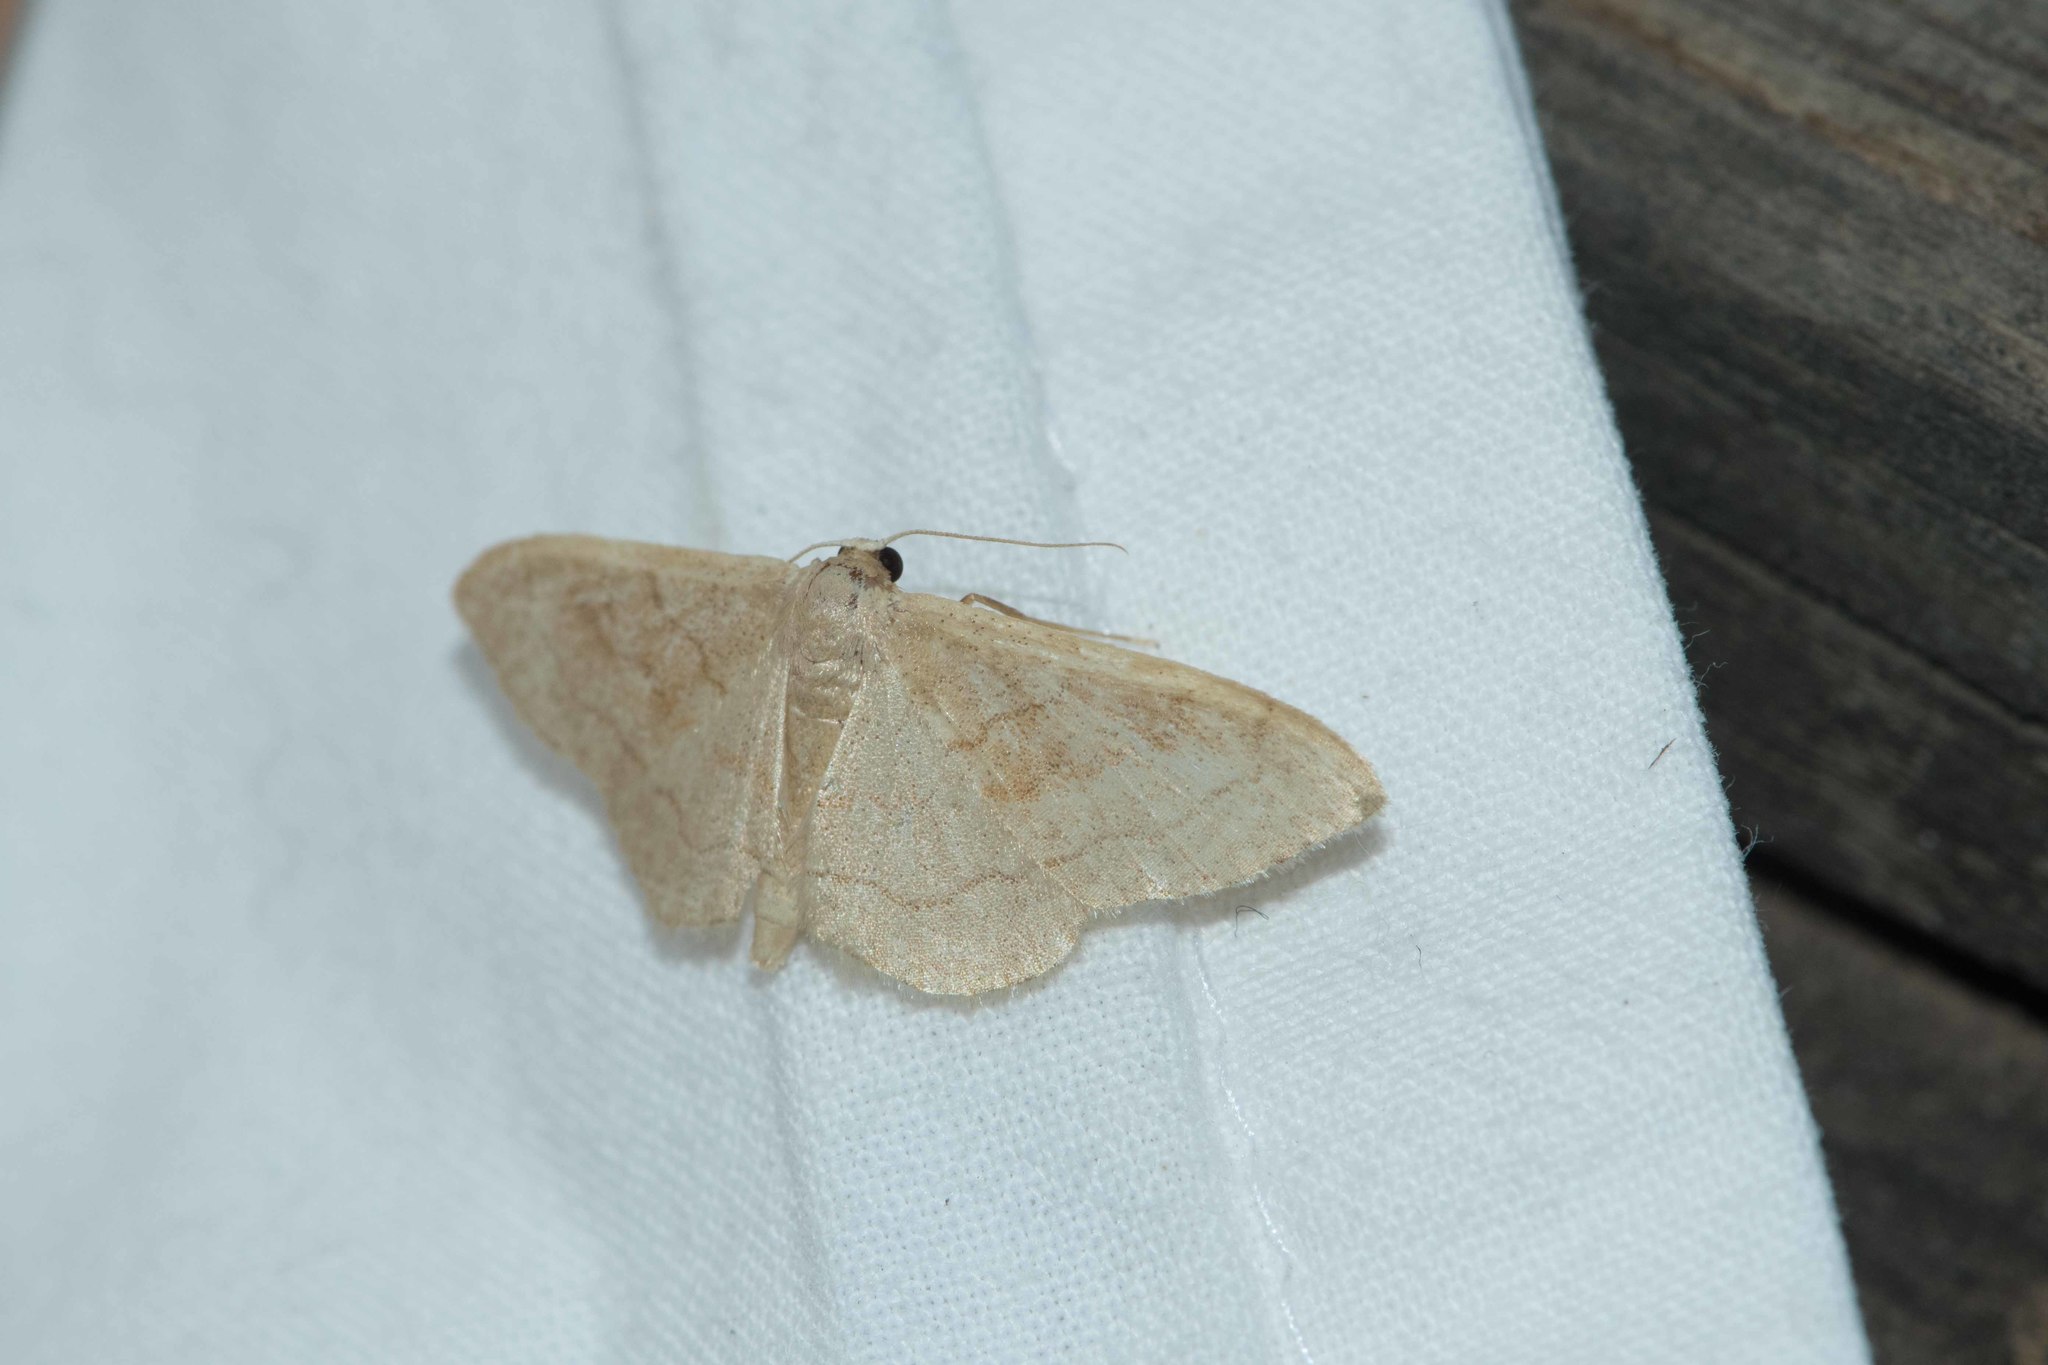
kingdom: Animalia
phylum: Arthropoda
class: Insecta
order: Lepidoptera
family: Geometridae
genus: Idaea
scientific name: Idaea degeneraria
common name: Portland ribbon wave
